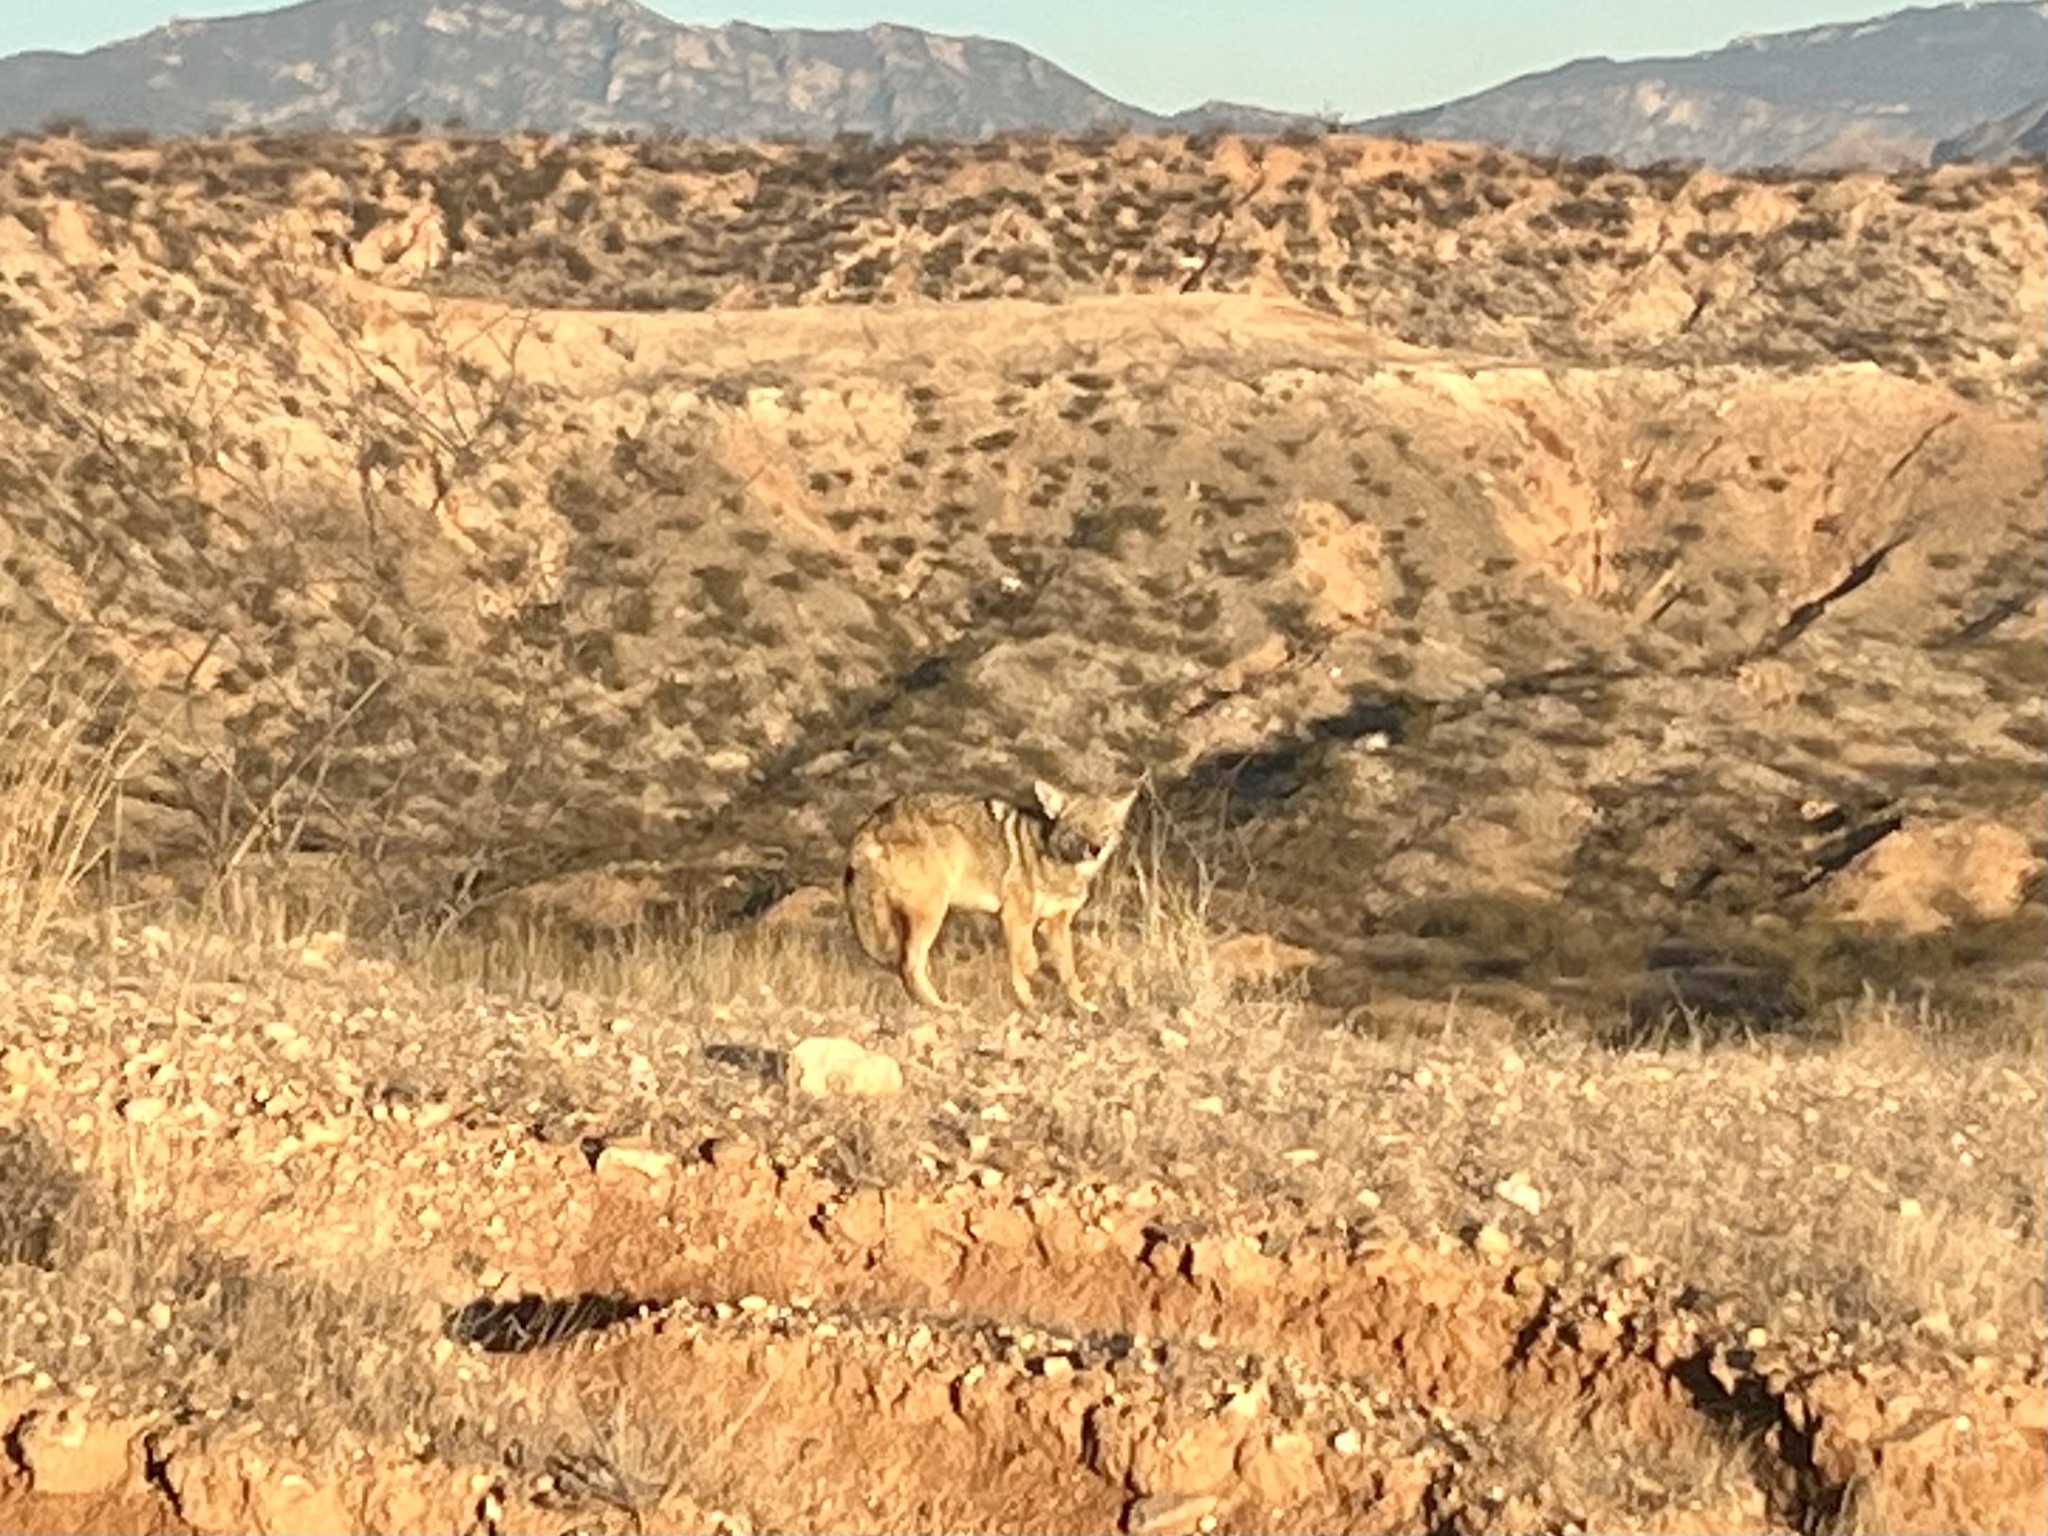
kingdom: Animalia
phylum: Chordata
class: Mammalia
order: Carnivora
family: Canidae
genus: Canis
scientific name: Canis latrans
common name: Coyote
